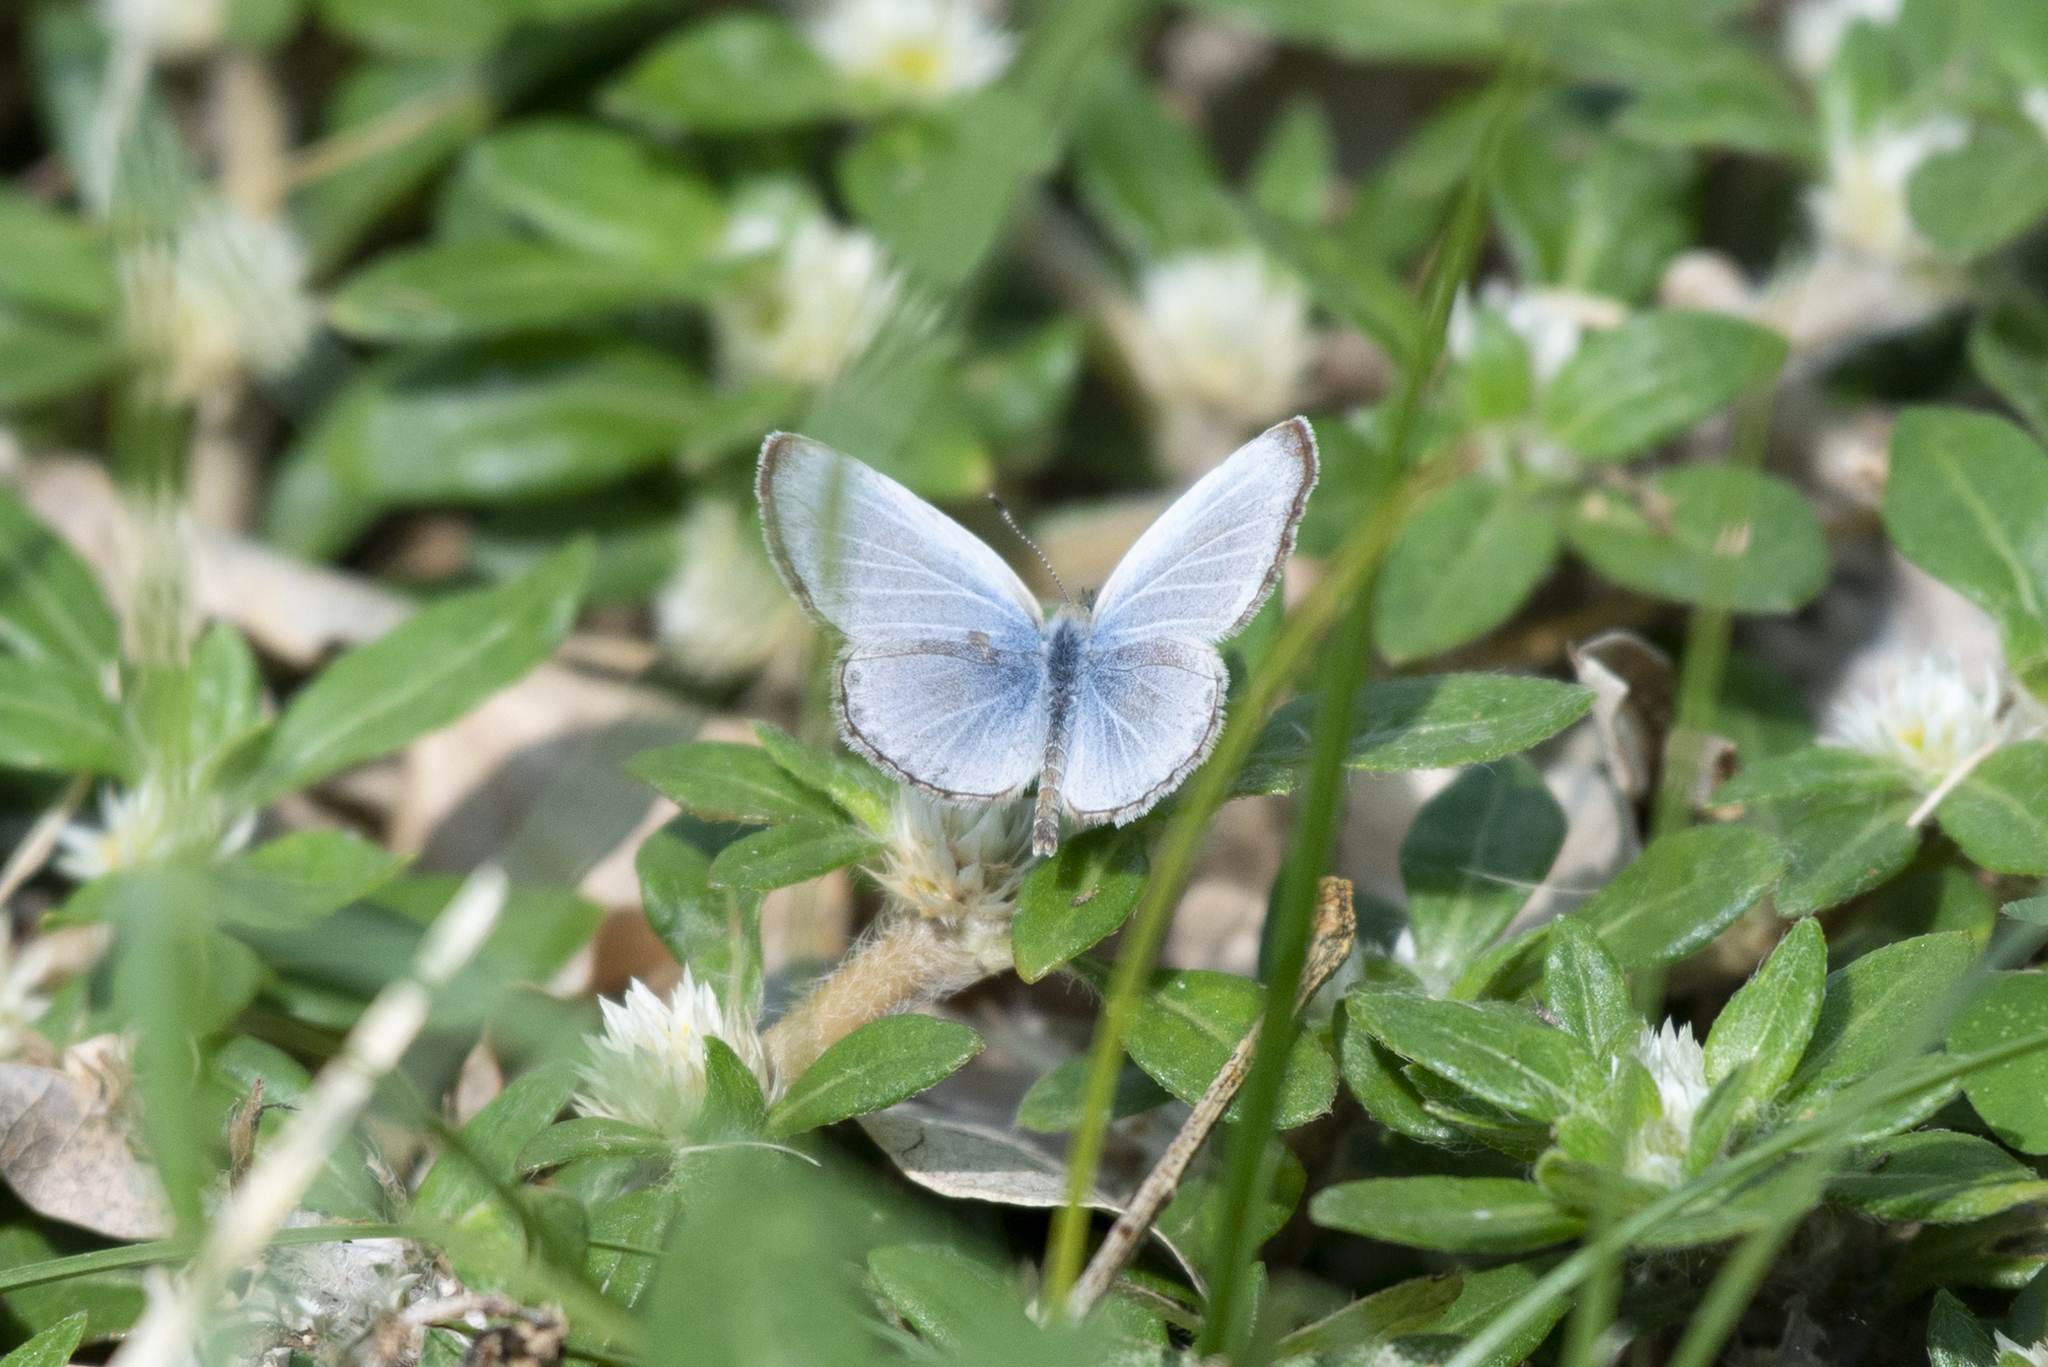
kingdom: Animalia
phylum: Arthropoda
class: Insecta
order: Lepidoptera
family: Lycaenidae
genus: Pseudozizeeria
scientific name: Pseudozizeeria maha
